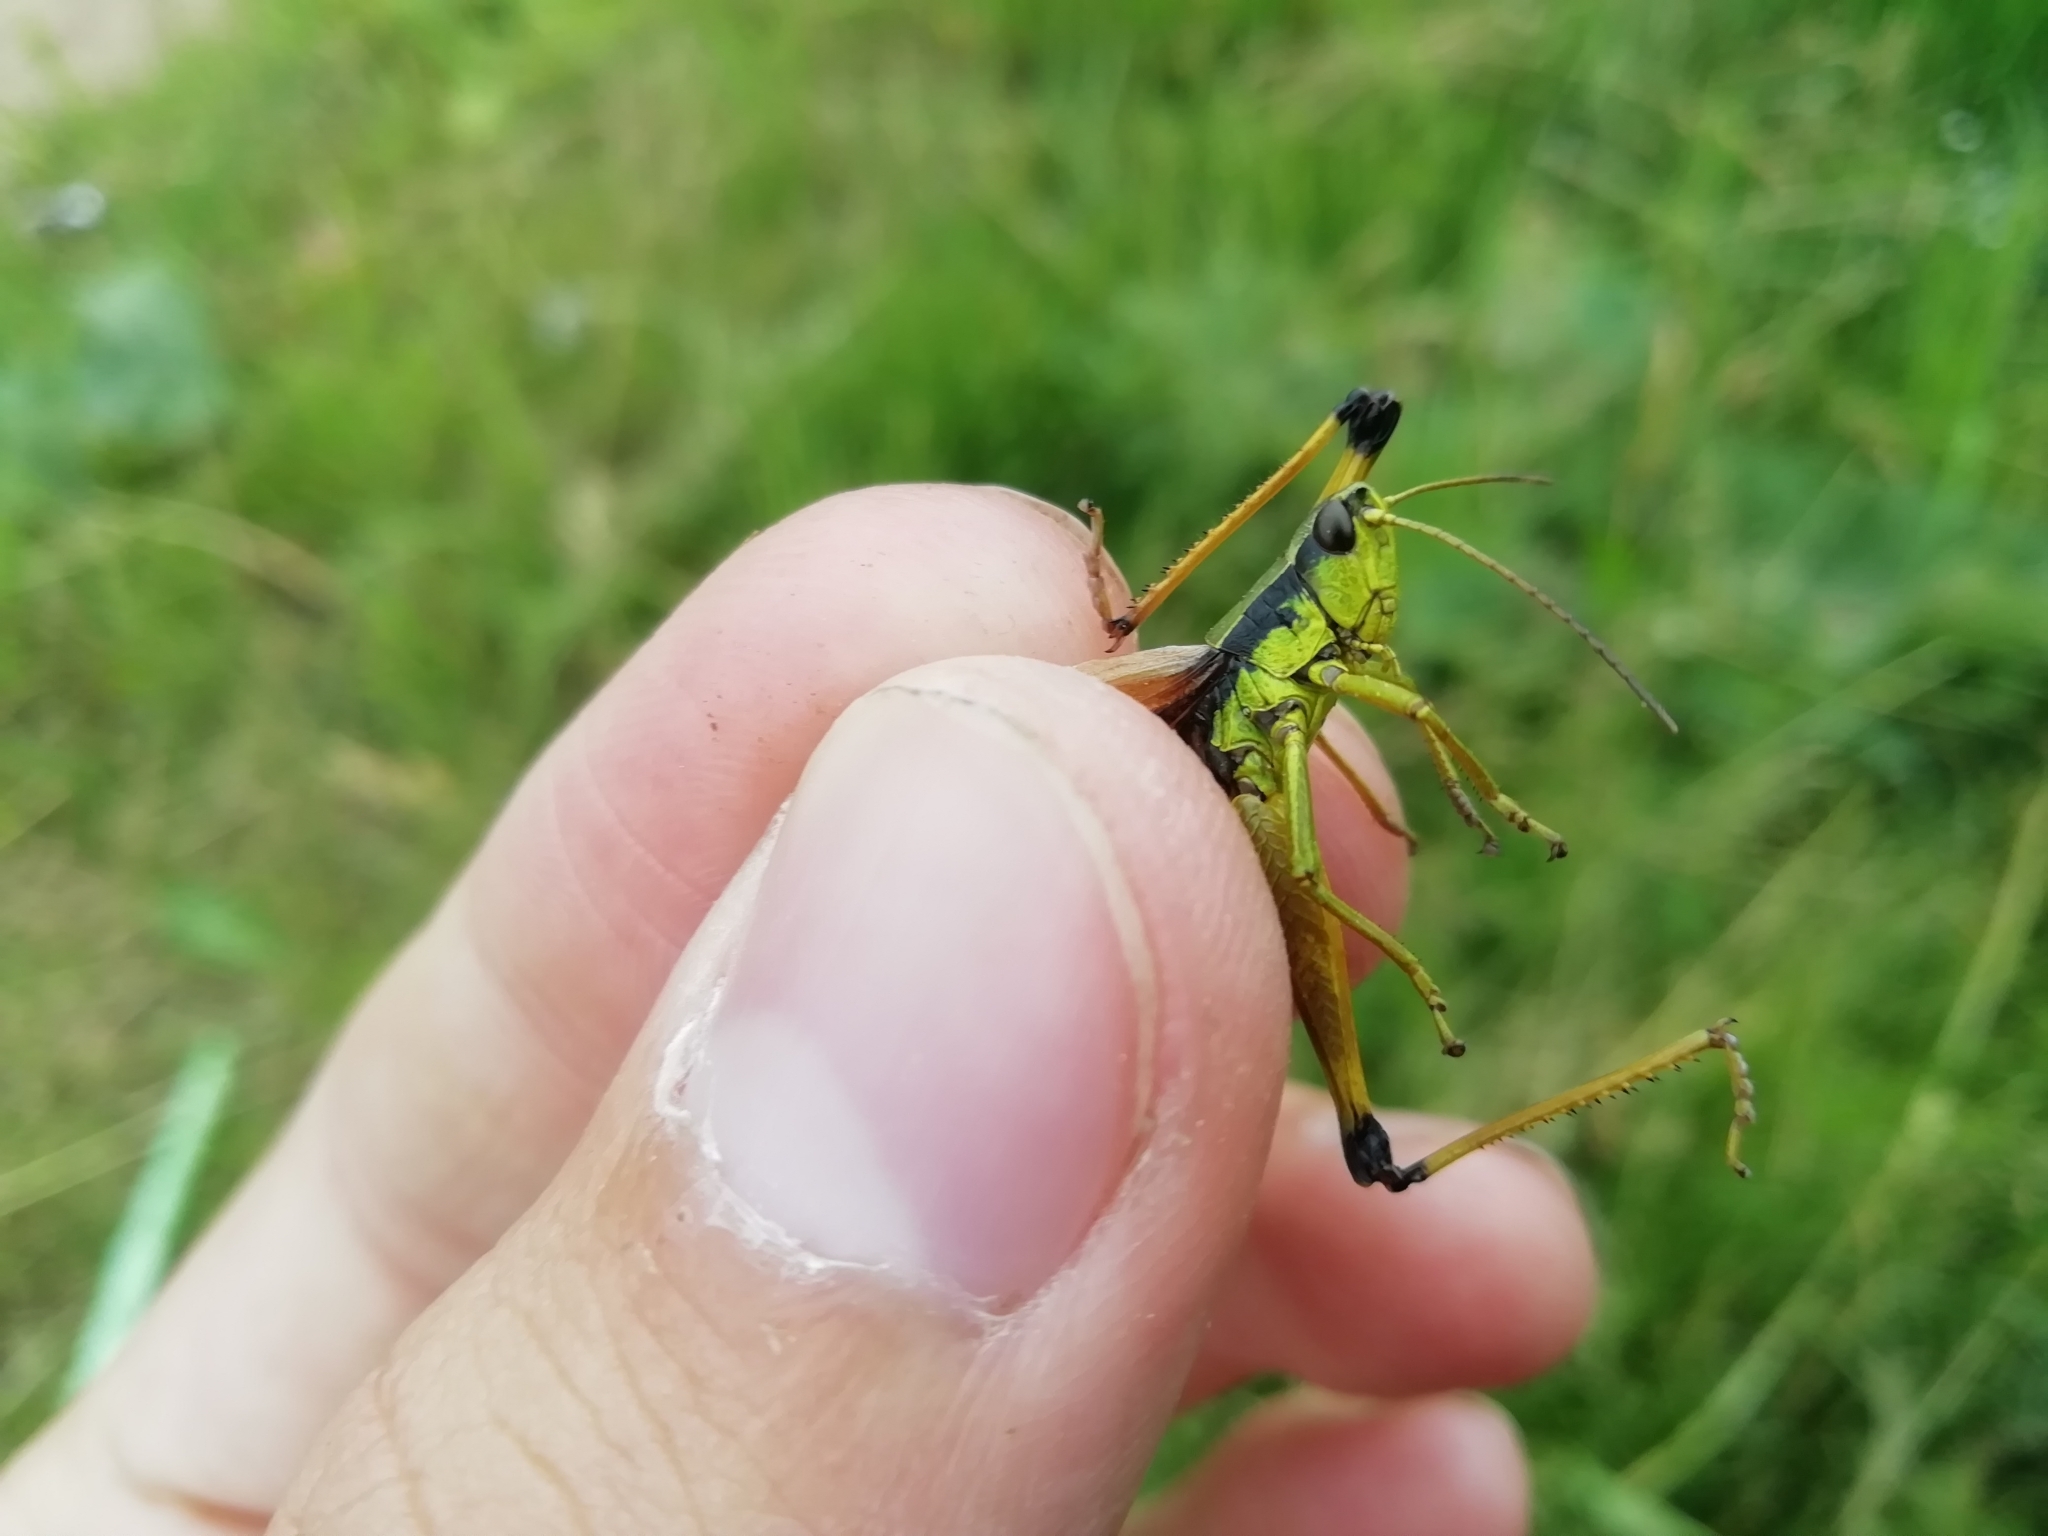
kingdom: Animalia
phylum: Arthropoda
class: Insecta
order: Orthoptera
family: Acrididae
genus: Podismopsis
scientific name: Podismopsis poppiusi
